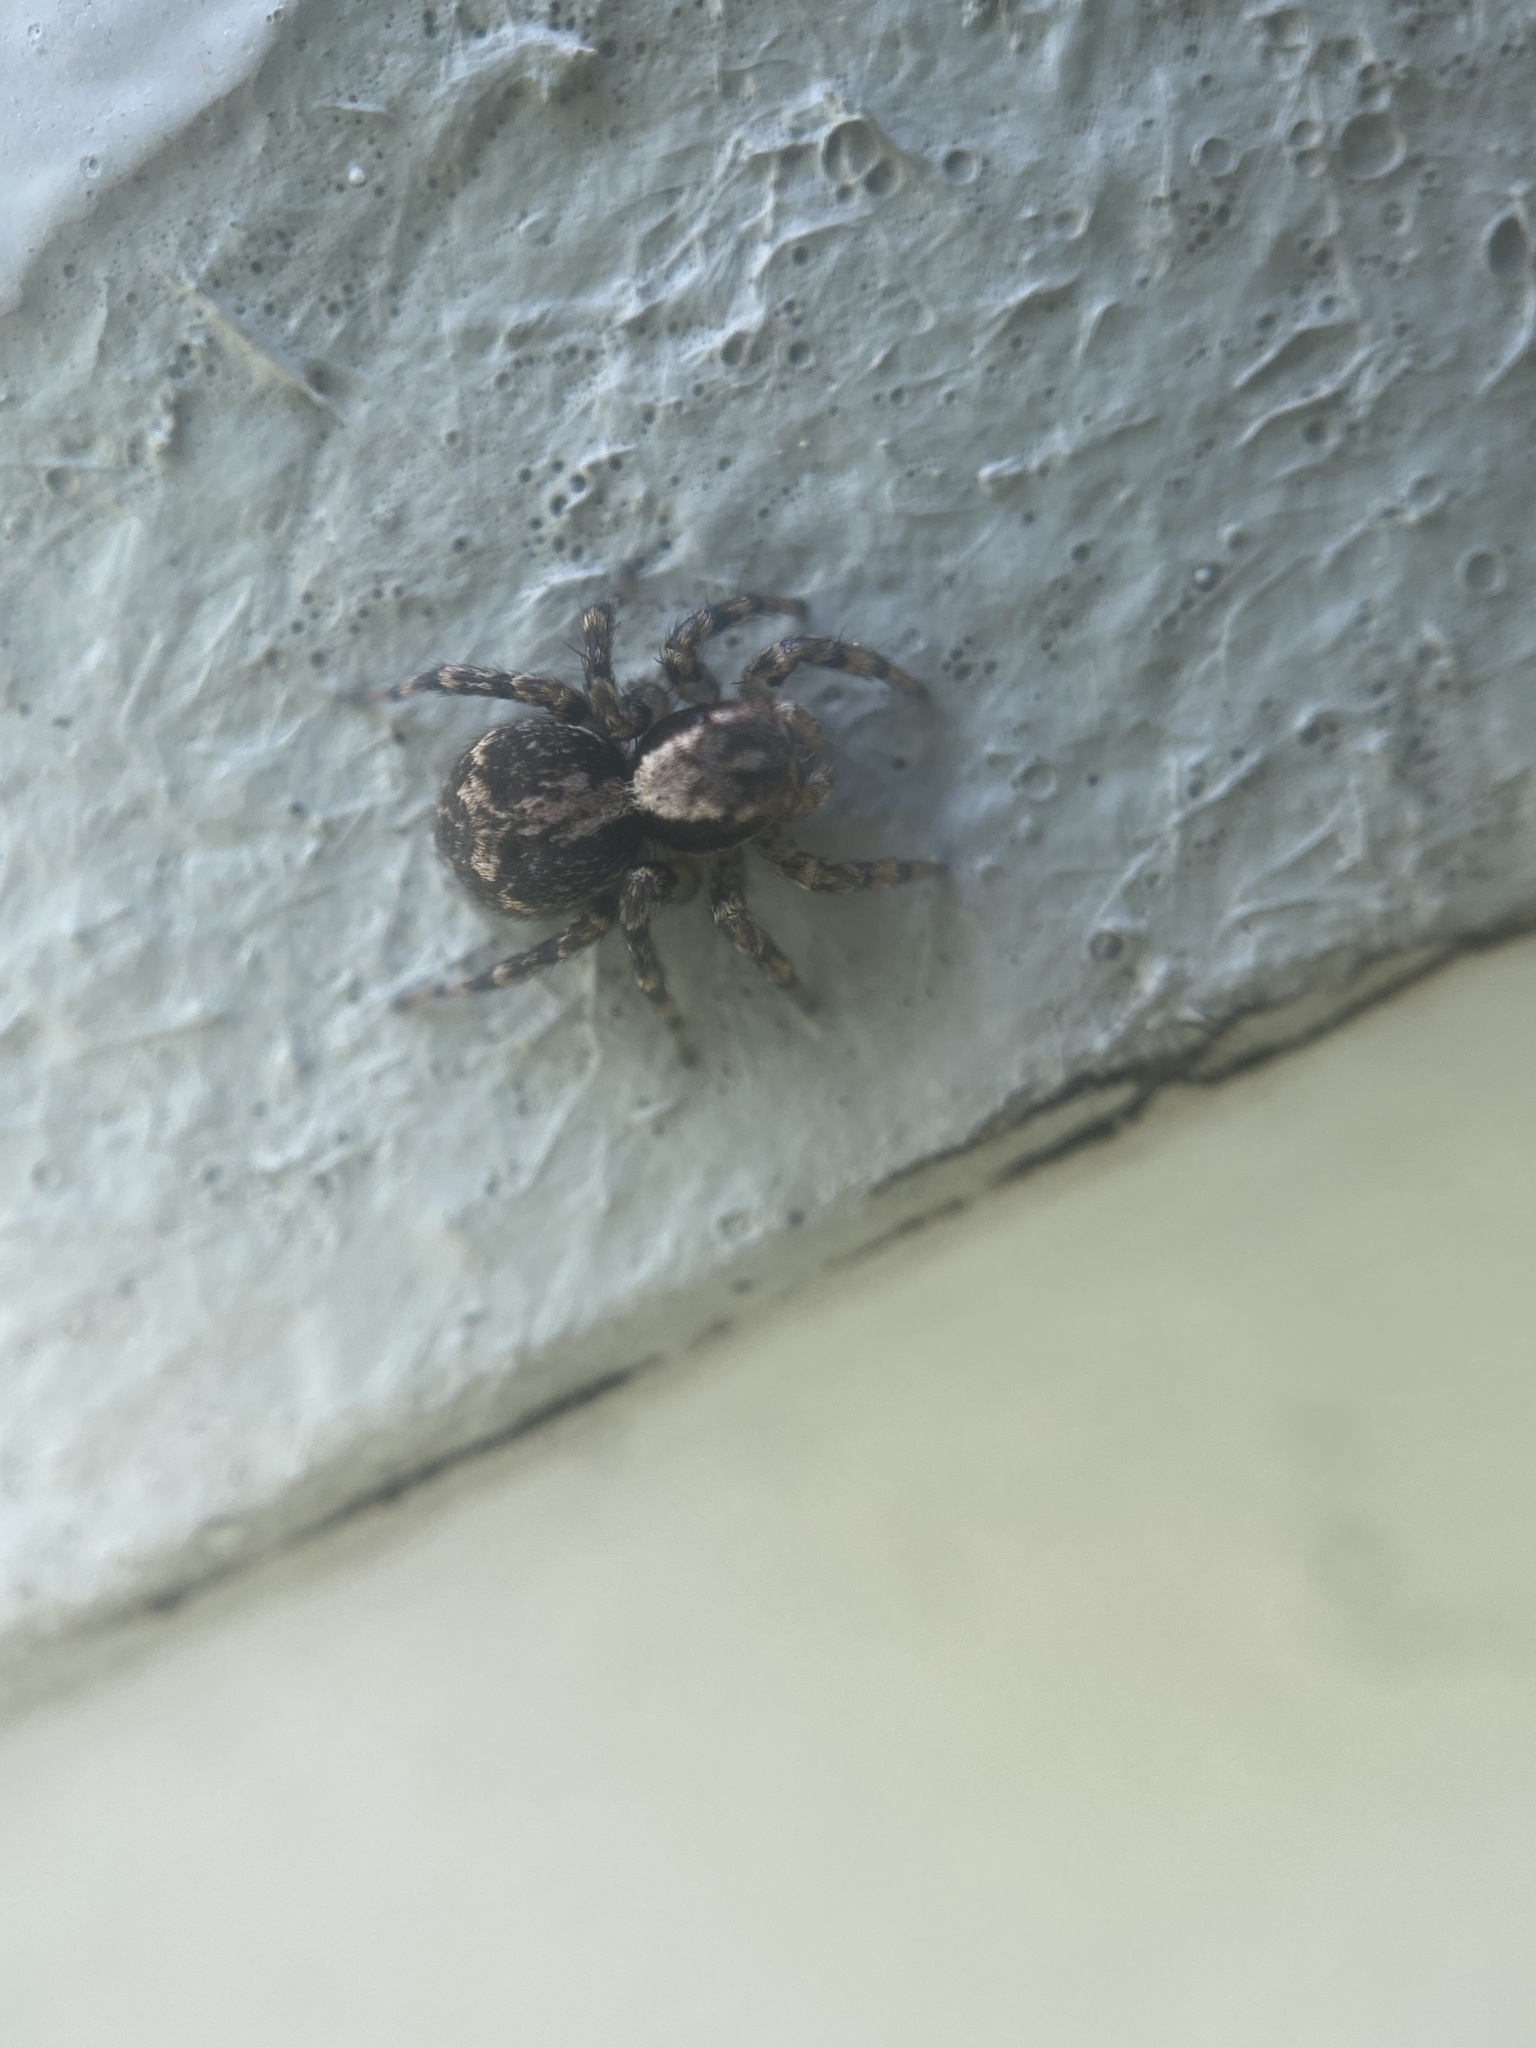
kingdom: Animalia
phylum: Arthropoda
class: Arachnida
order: Araneae
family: Salticidae
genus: Naphrys
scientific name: Naphrys pulex
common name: Flea jumping spider
